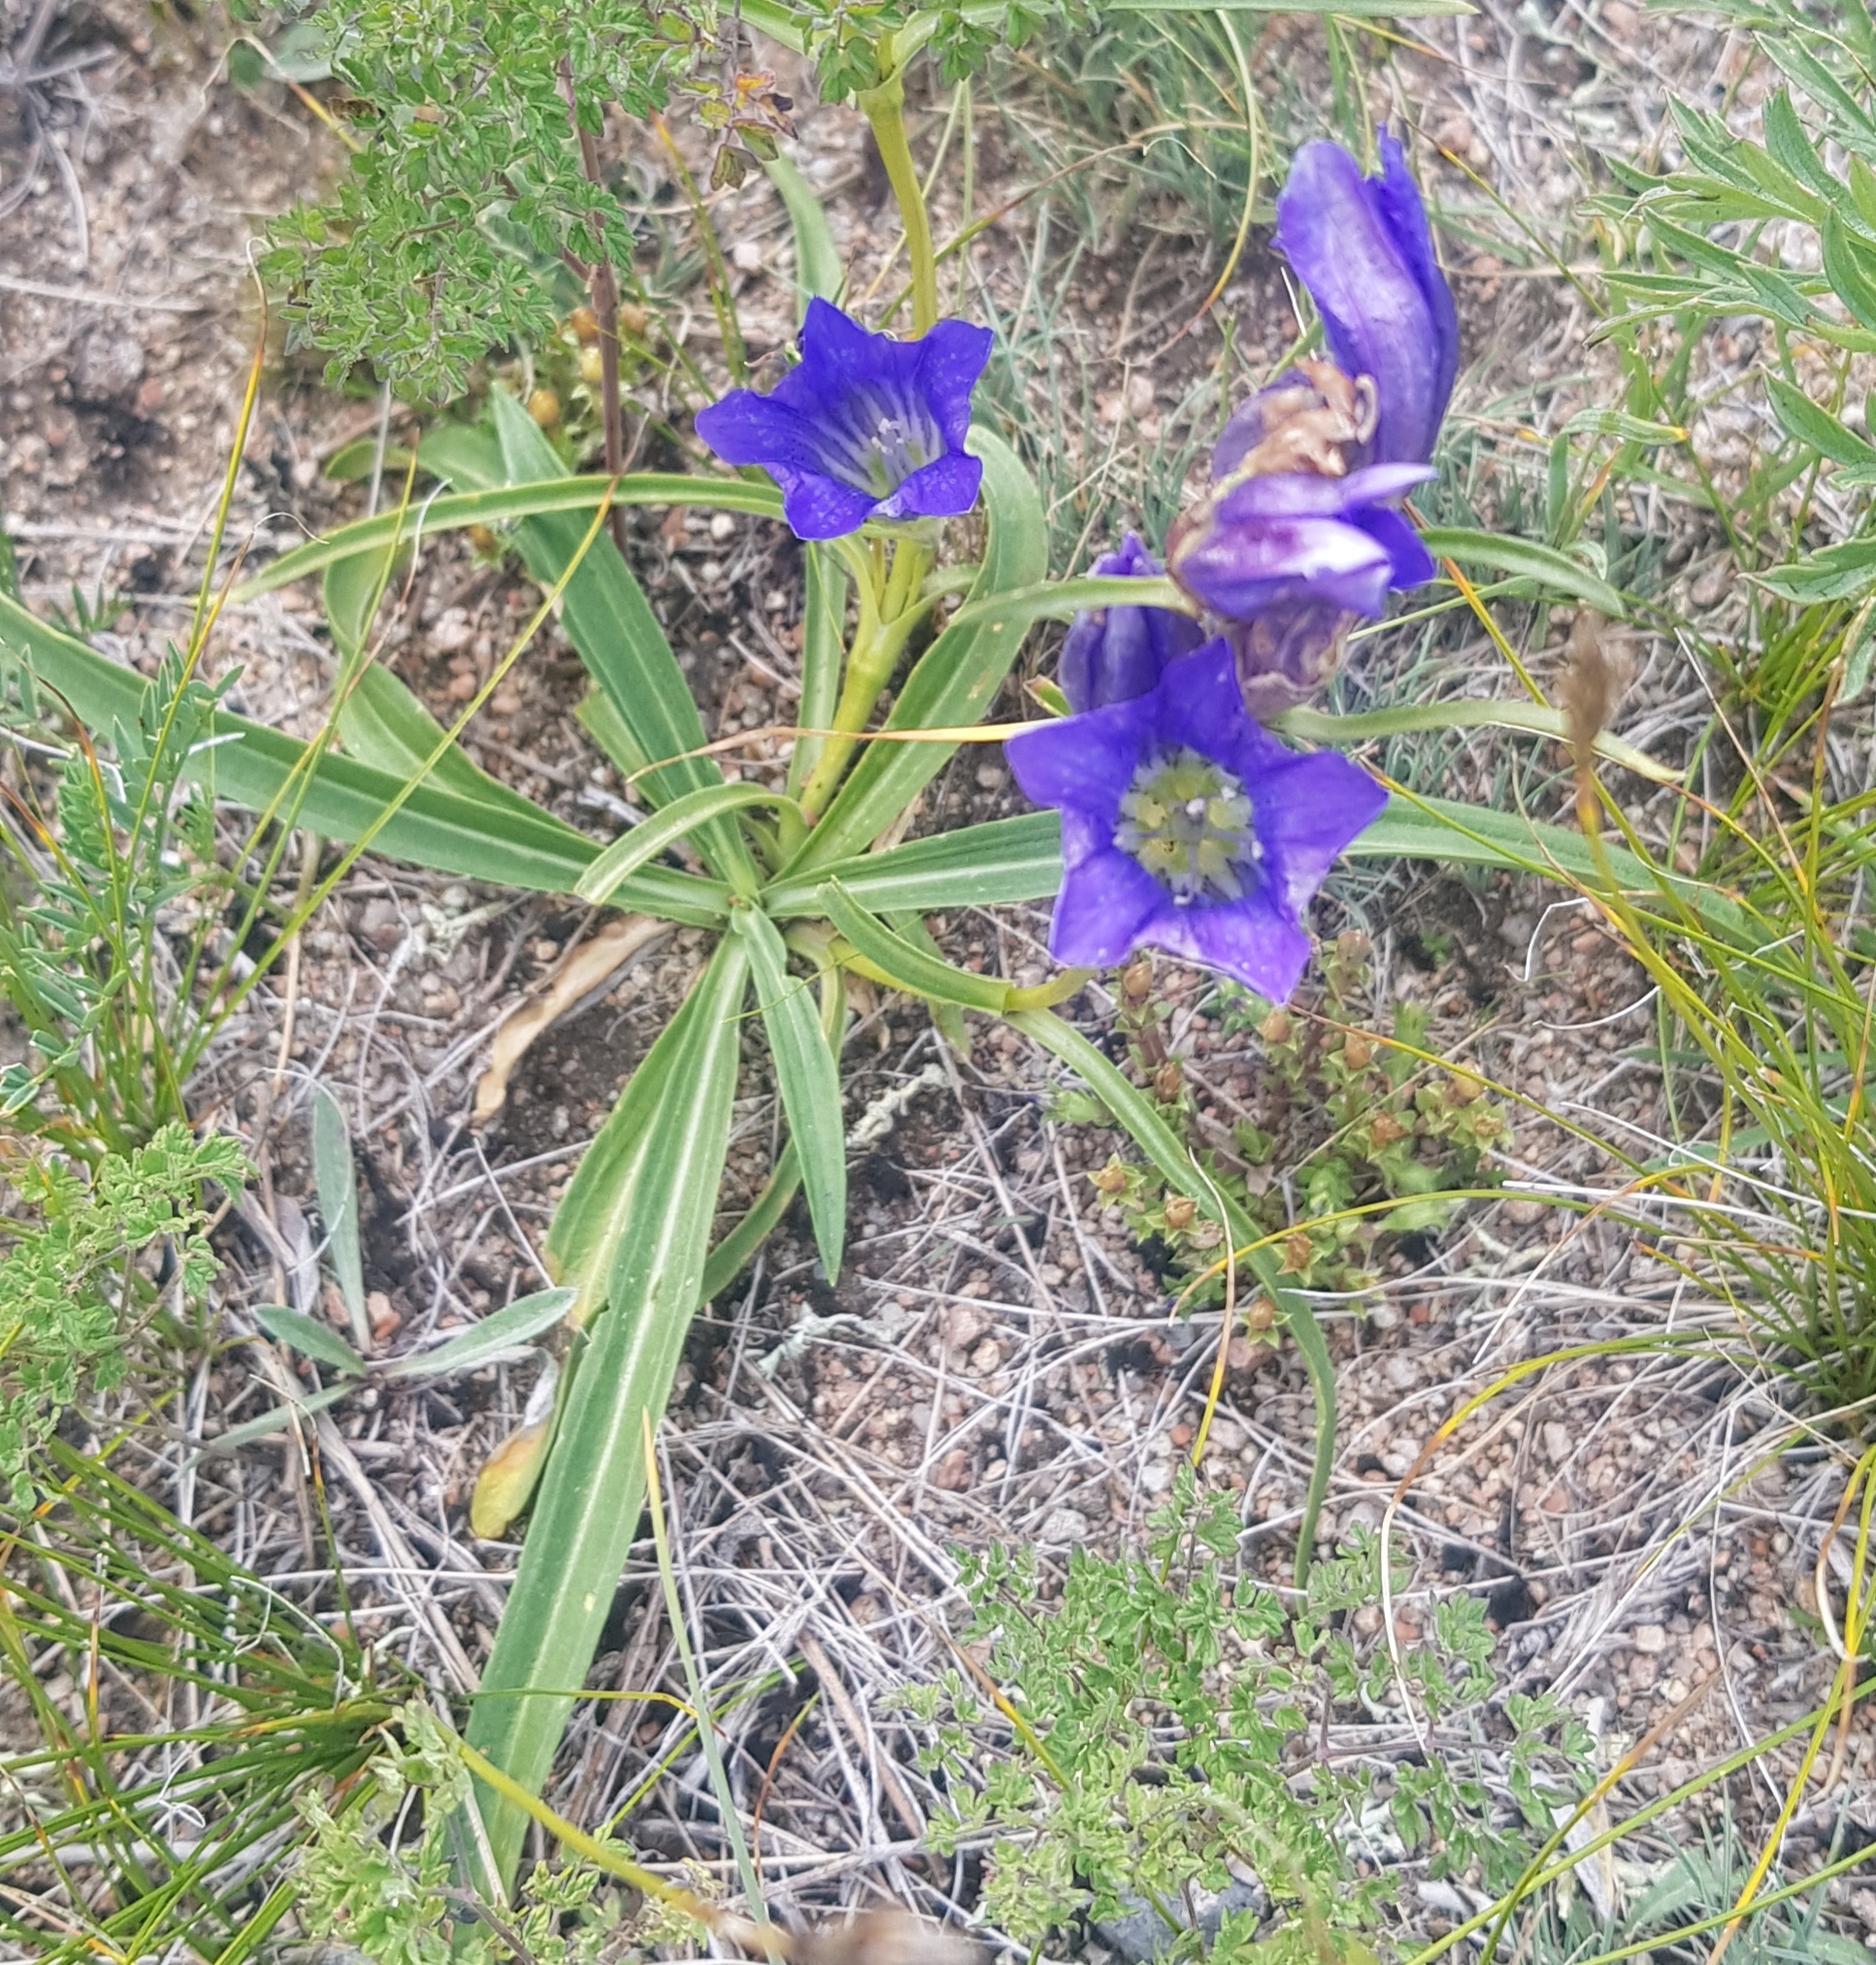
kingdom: Plantae
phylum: Tracheophyta
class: Magnoliopsida
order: Gentianales
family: Gentianaceae
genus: Gentiana
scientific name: Gentiana decumbens
